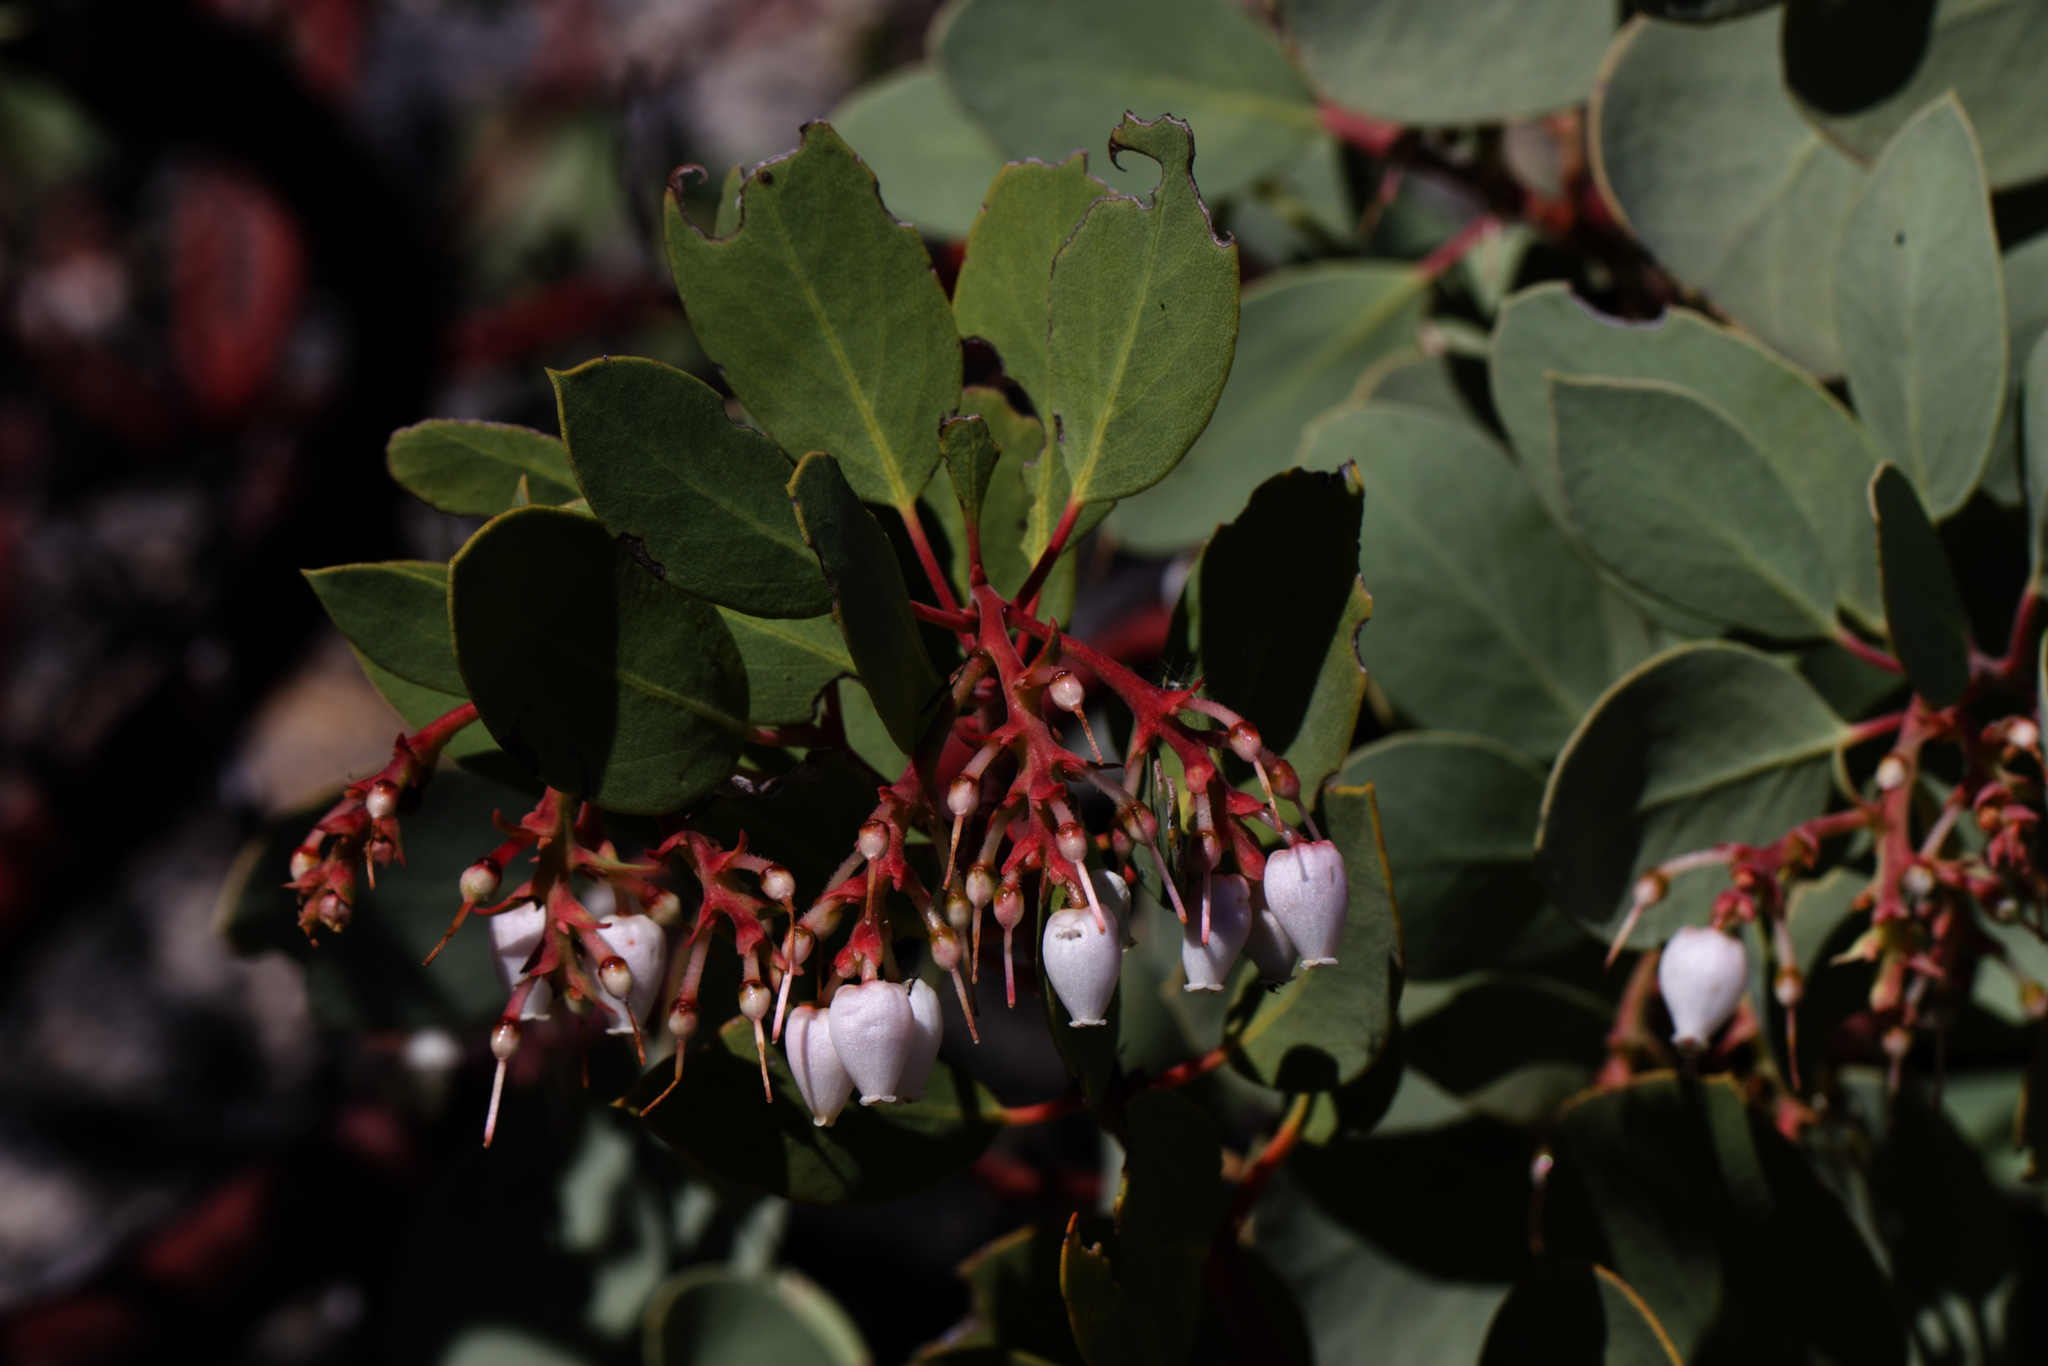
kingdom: Plantae
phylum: Tracheophyta
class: Magnoliopsida
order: Ericales
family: Ericaceae
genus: Arctostaphylos
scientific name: Arctostaphylos glauca
